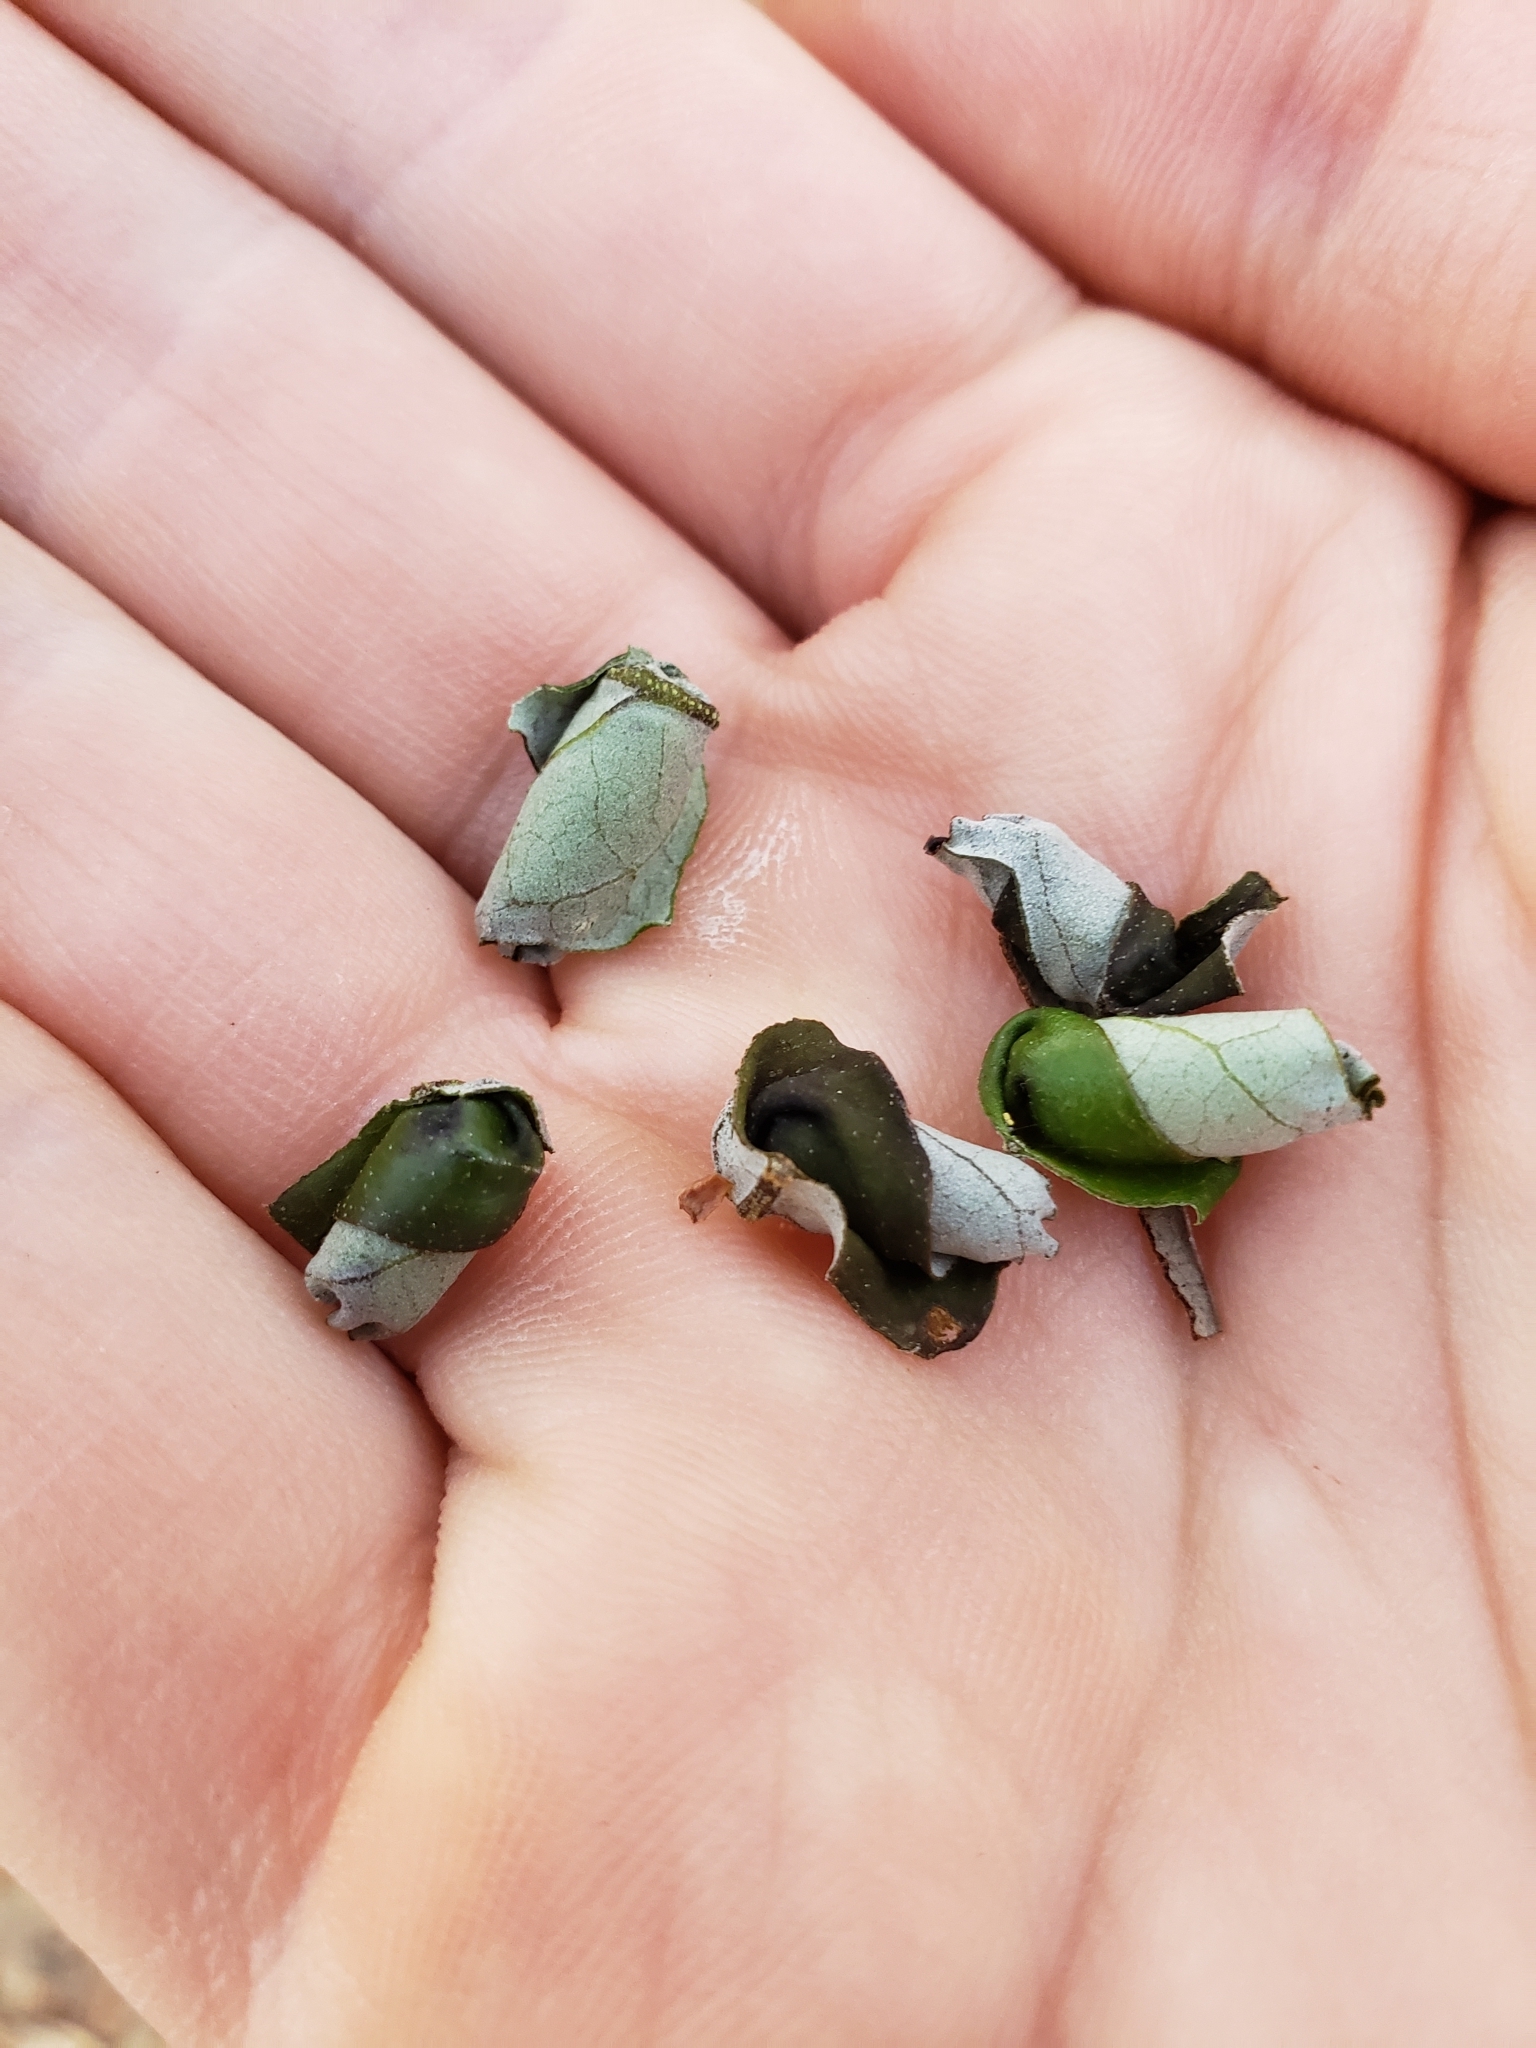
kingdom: Animalia
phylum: Arthropoda
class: Insecta
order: Coleoptera
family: Attelabidae
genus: Homoeolabus
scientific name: Homoeolabus analis
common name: Oak leaf rolling weevil
